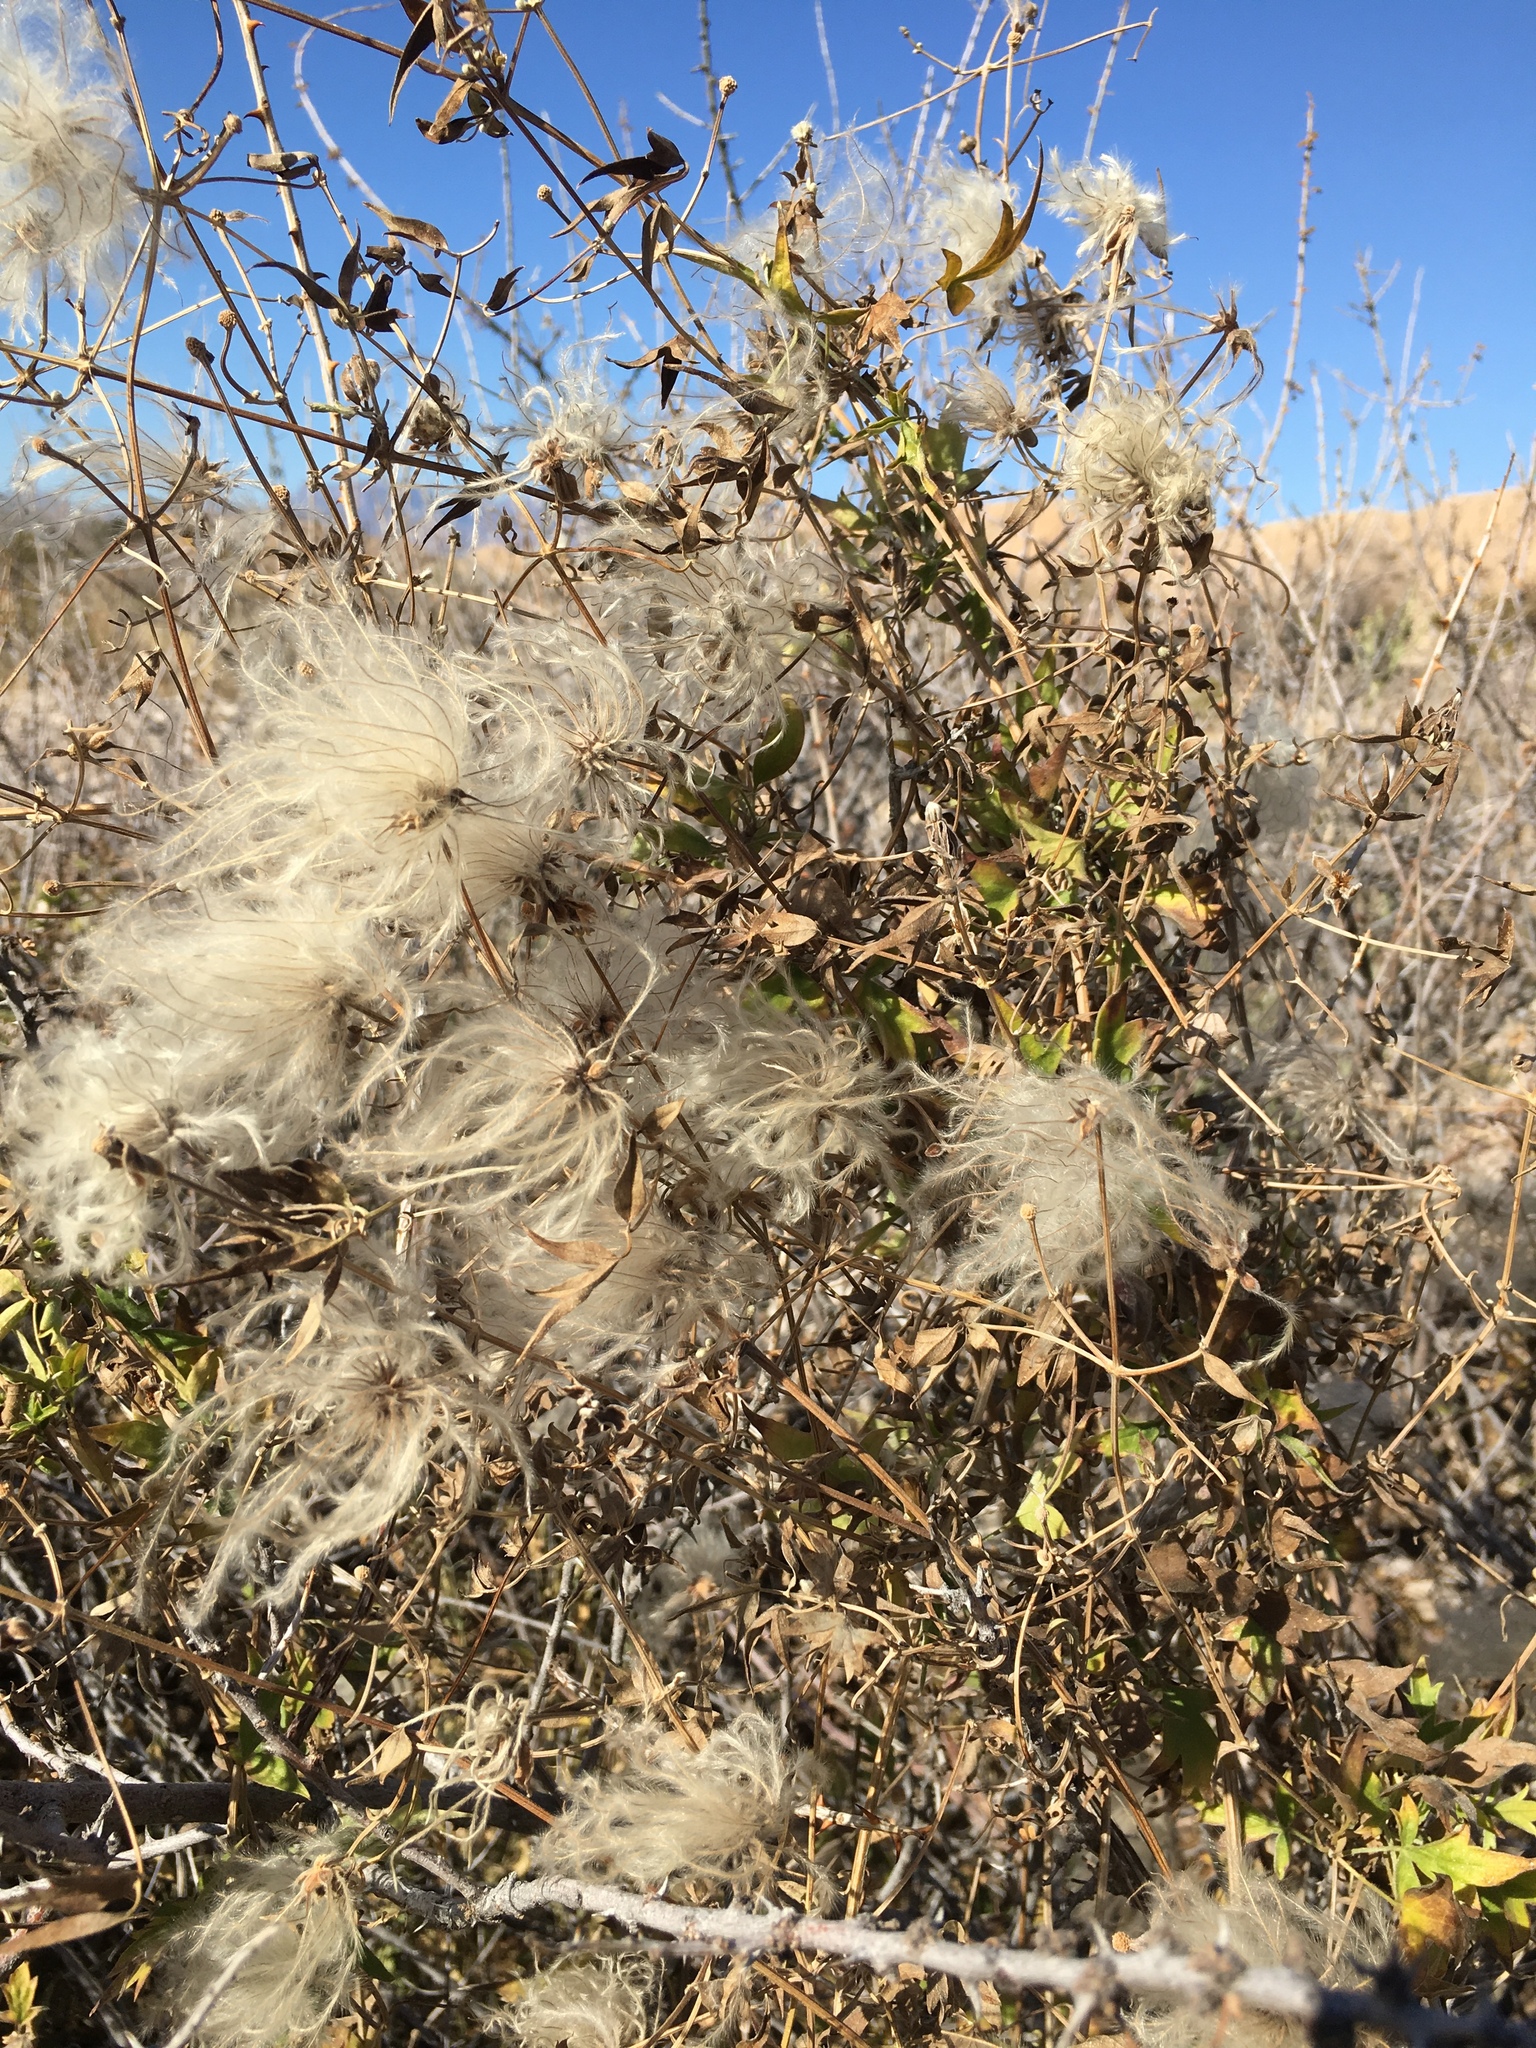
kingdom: Plantae
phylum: Tracheophyta
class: Magnoliopsida
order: Ranunculales
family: Ranunculaceae
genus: Clematis
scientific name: Clematis drummondii
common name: Texas virgin's bower
